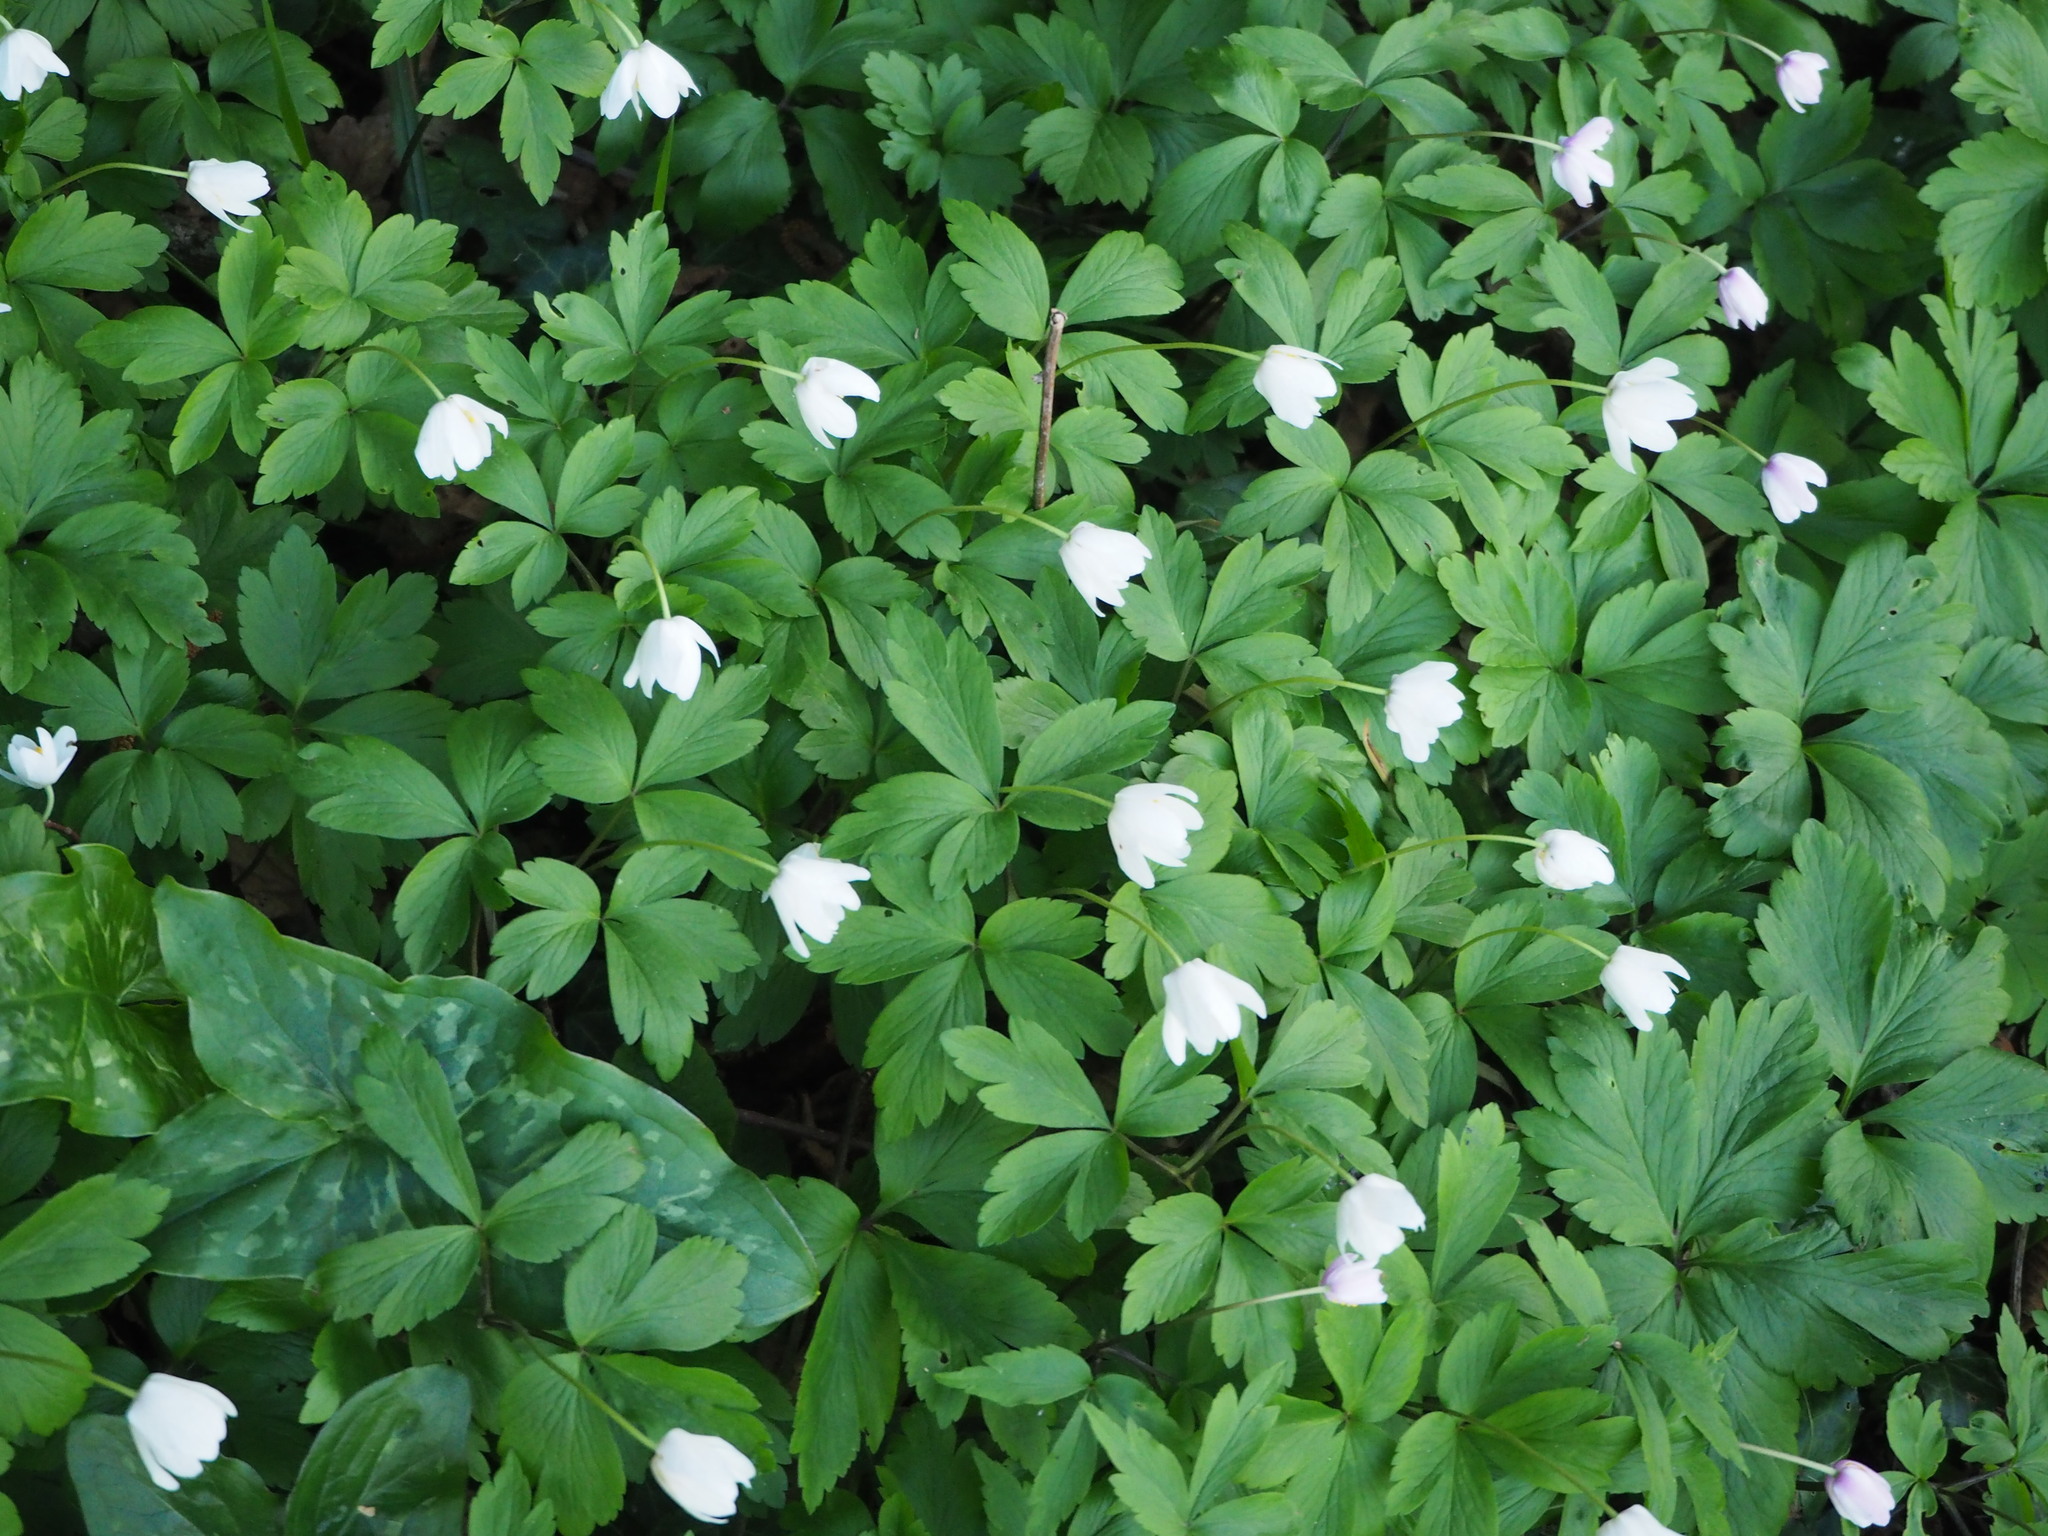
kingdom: Plantae
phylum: Tracheophyta
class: Magnoliopsida
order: Ranunculales
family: Ranunculaceae
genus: Anemone
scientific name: Anemone nemorosa
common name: Wood anemone
